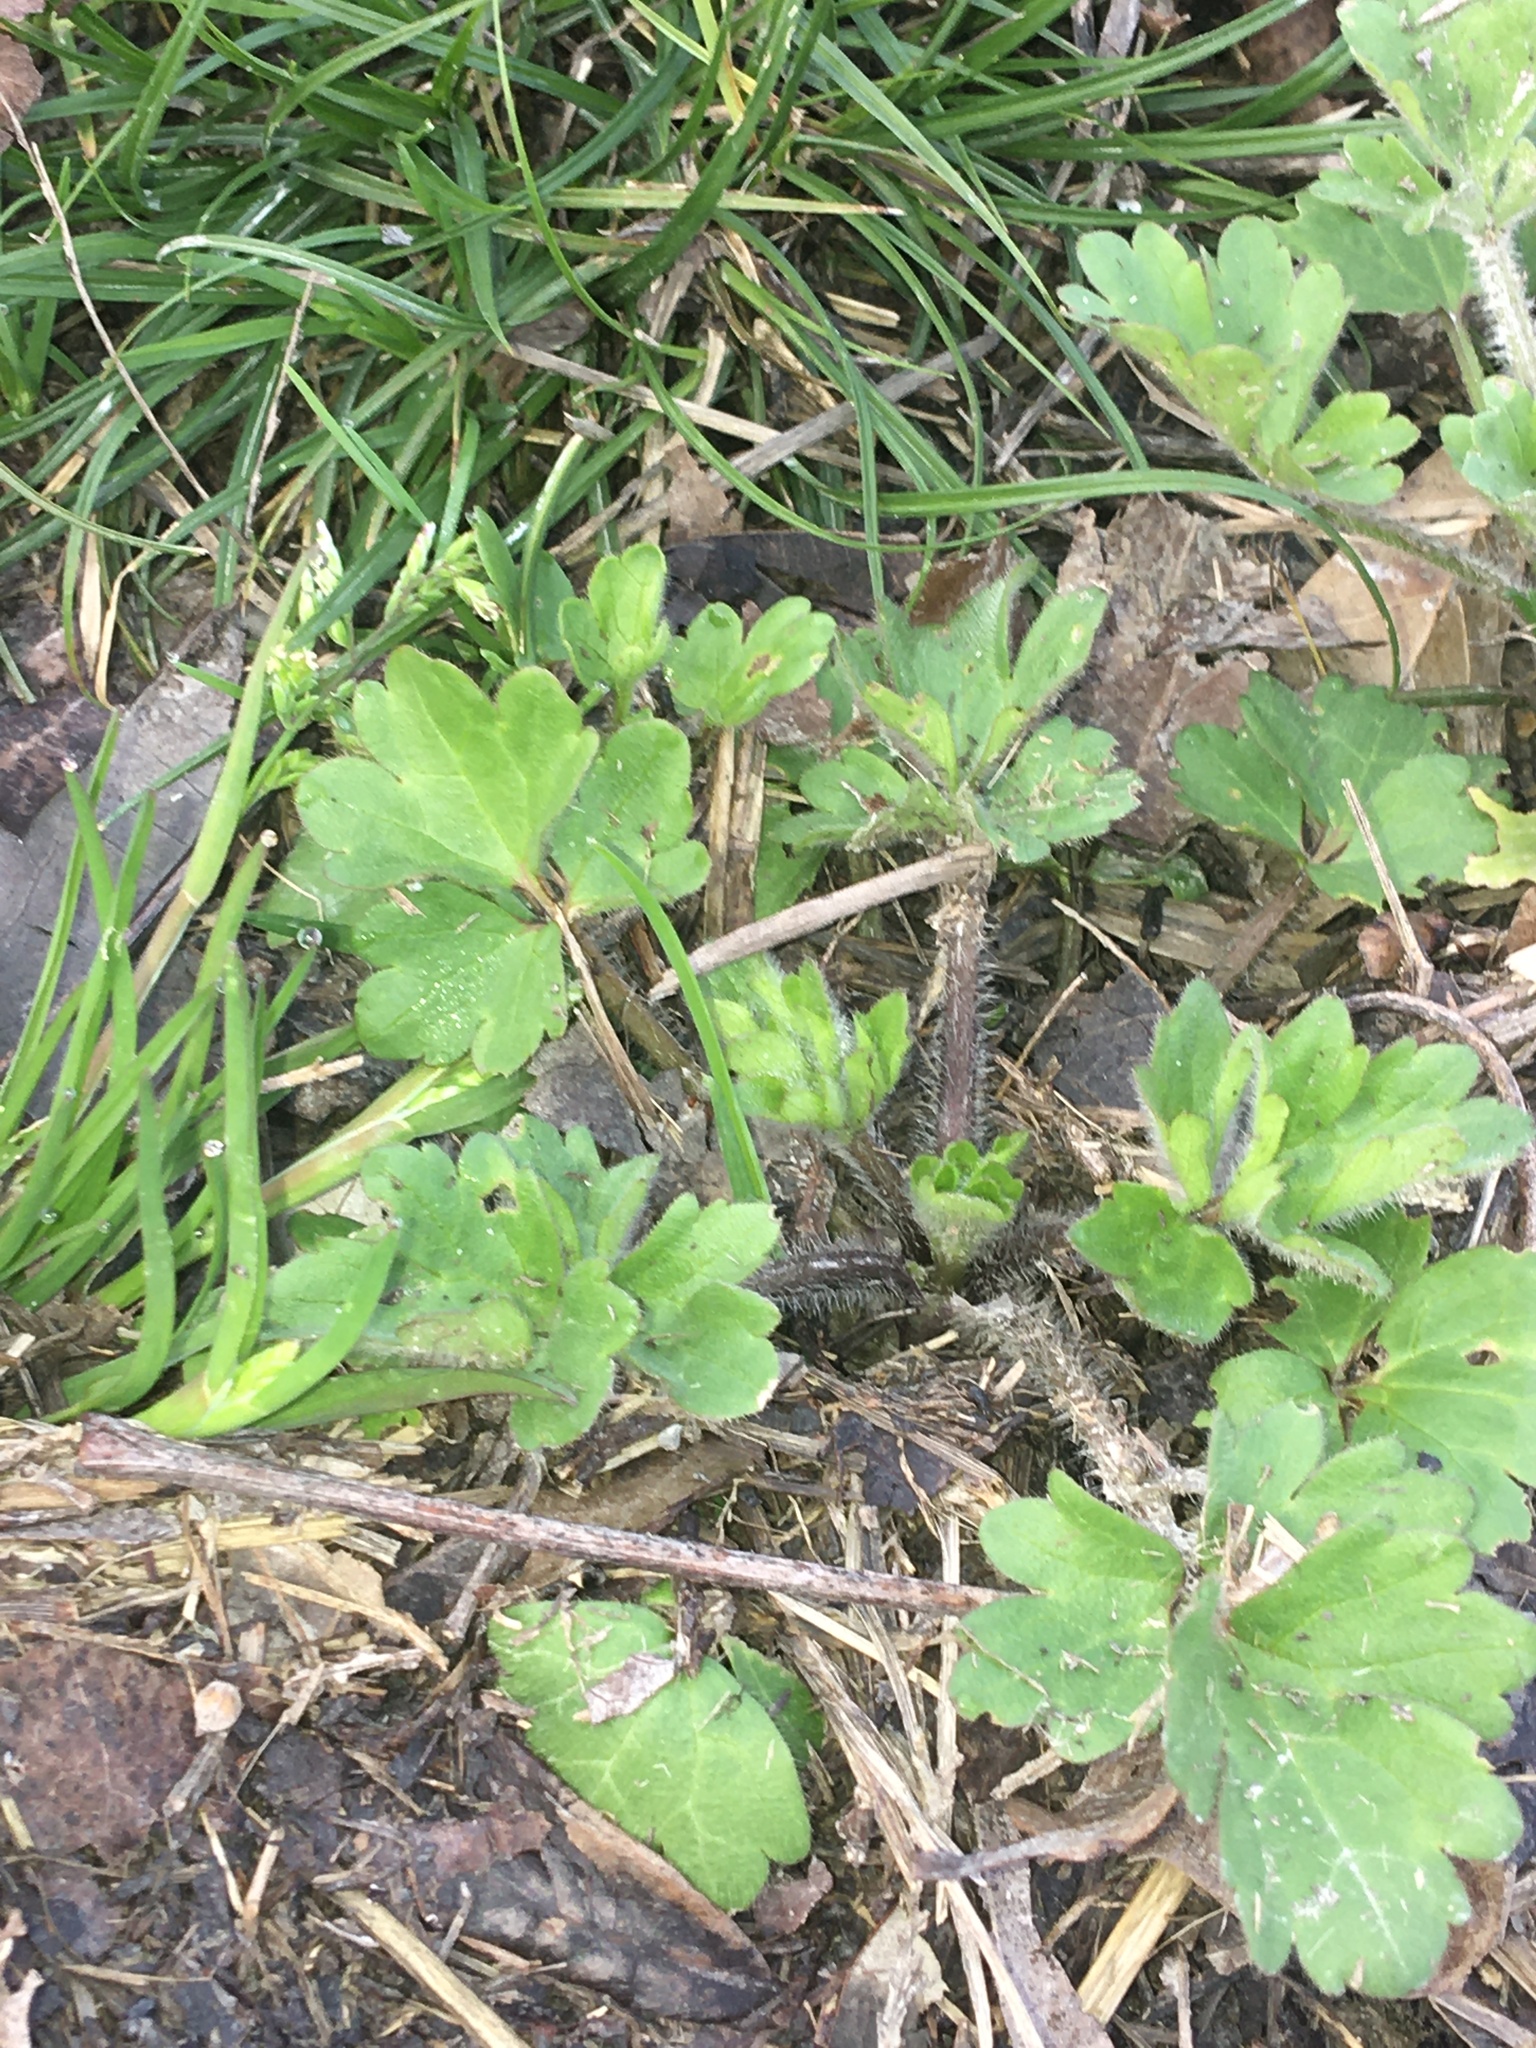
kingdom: Plantae
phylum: Tracheophyta
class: Magnoliopsida
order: Ranunculales
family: Ranunculaceae
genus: Ranunculus
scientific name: Ranunculus sardous
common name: Hairy buttercup
